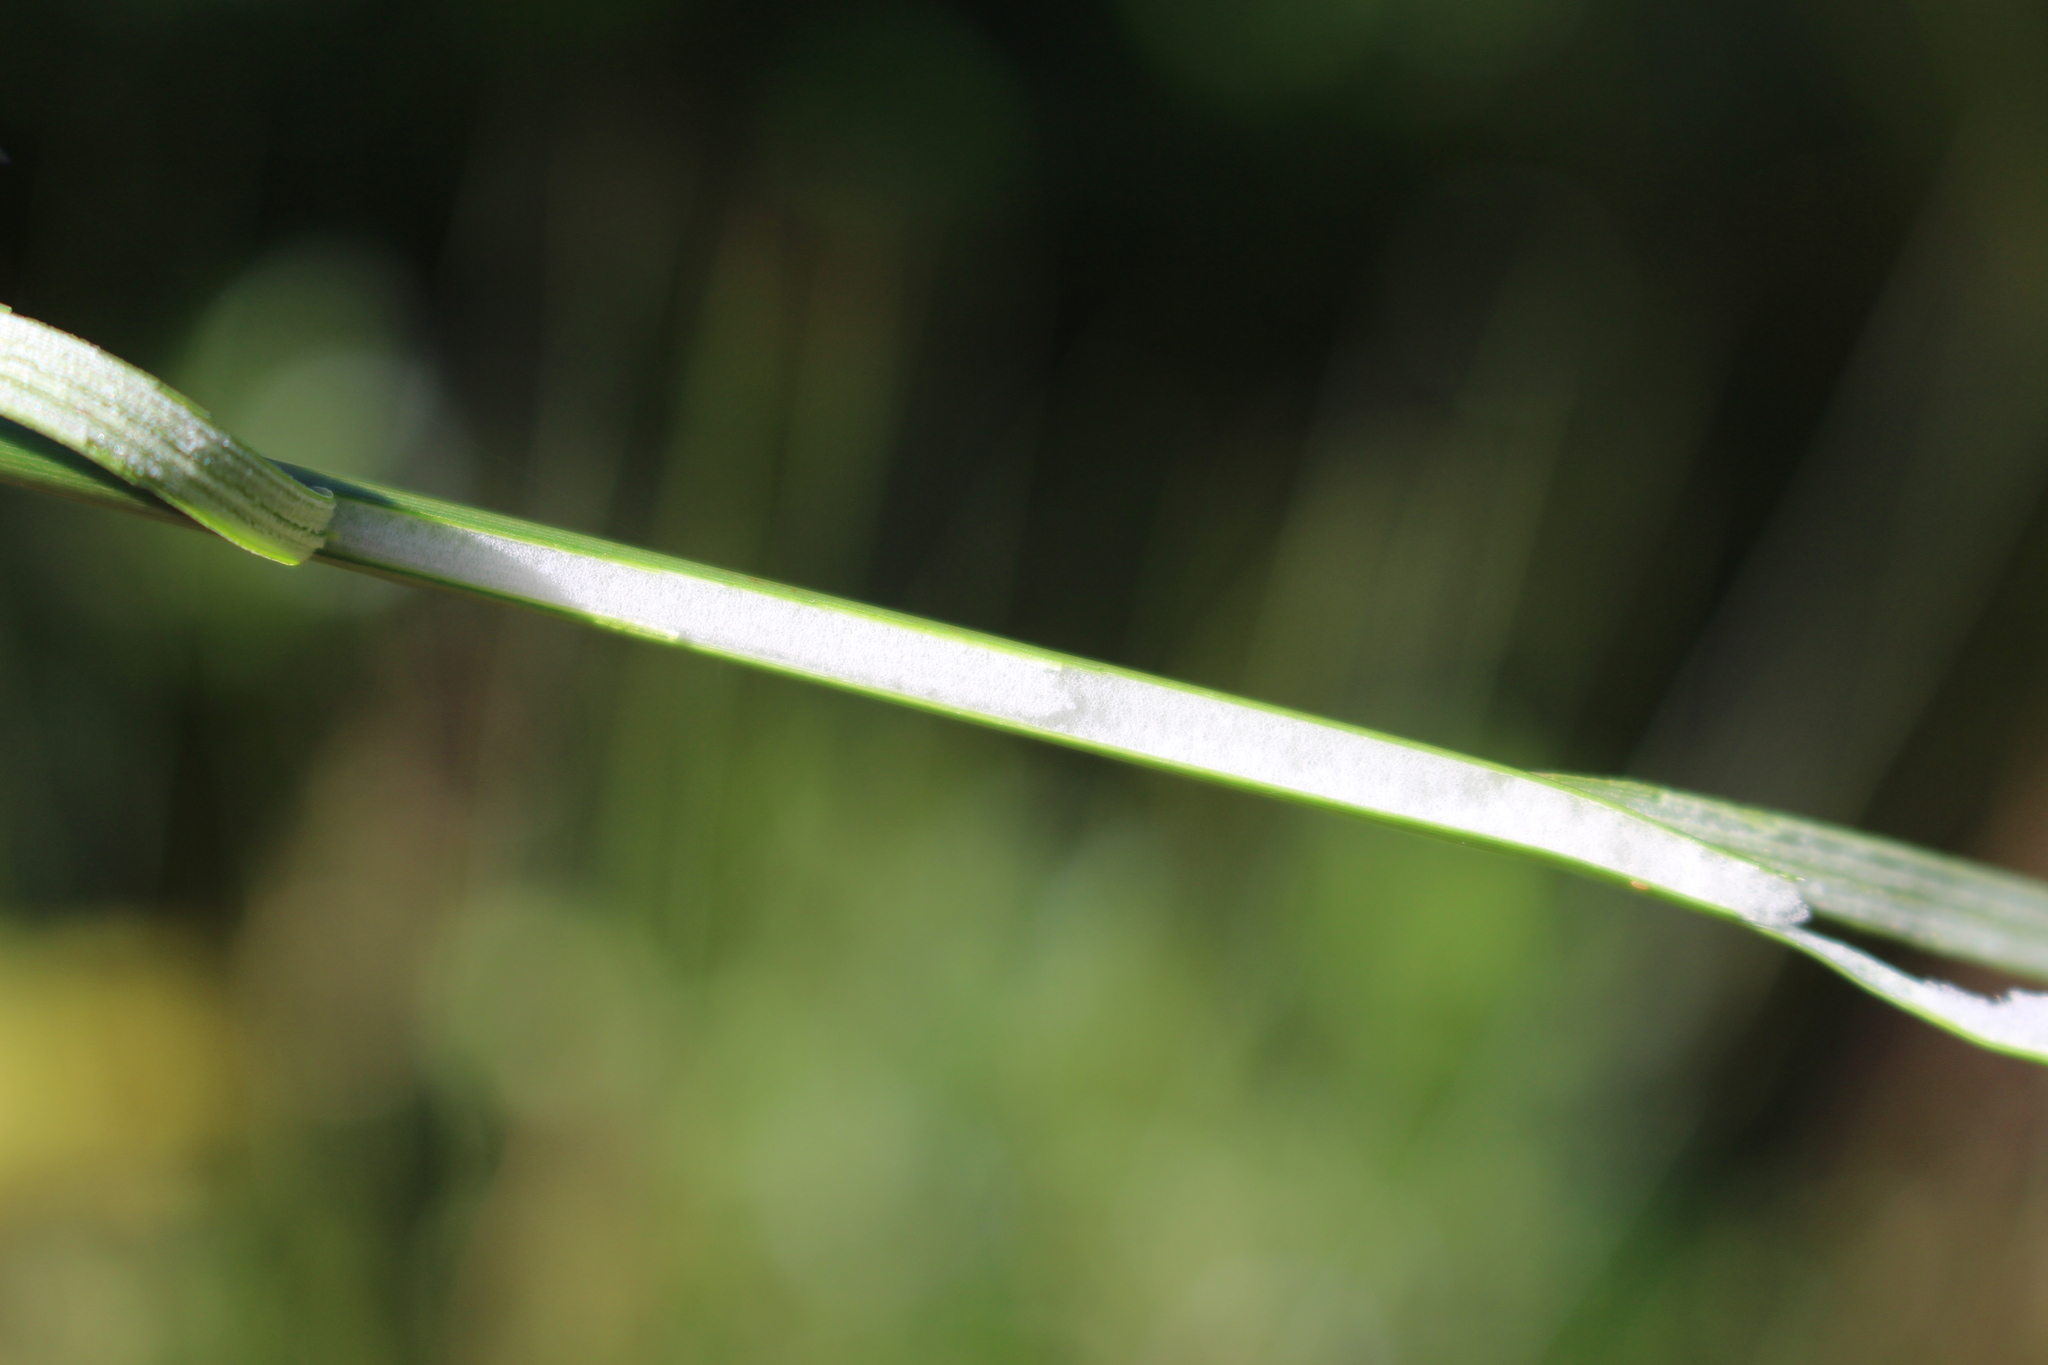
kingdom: Plantae
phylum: Tracheophyta
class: Liliopsida
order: Poales
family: Juncaceae
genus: Juncus
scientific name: Juncus effusus
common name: Soft rush
